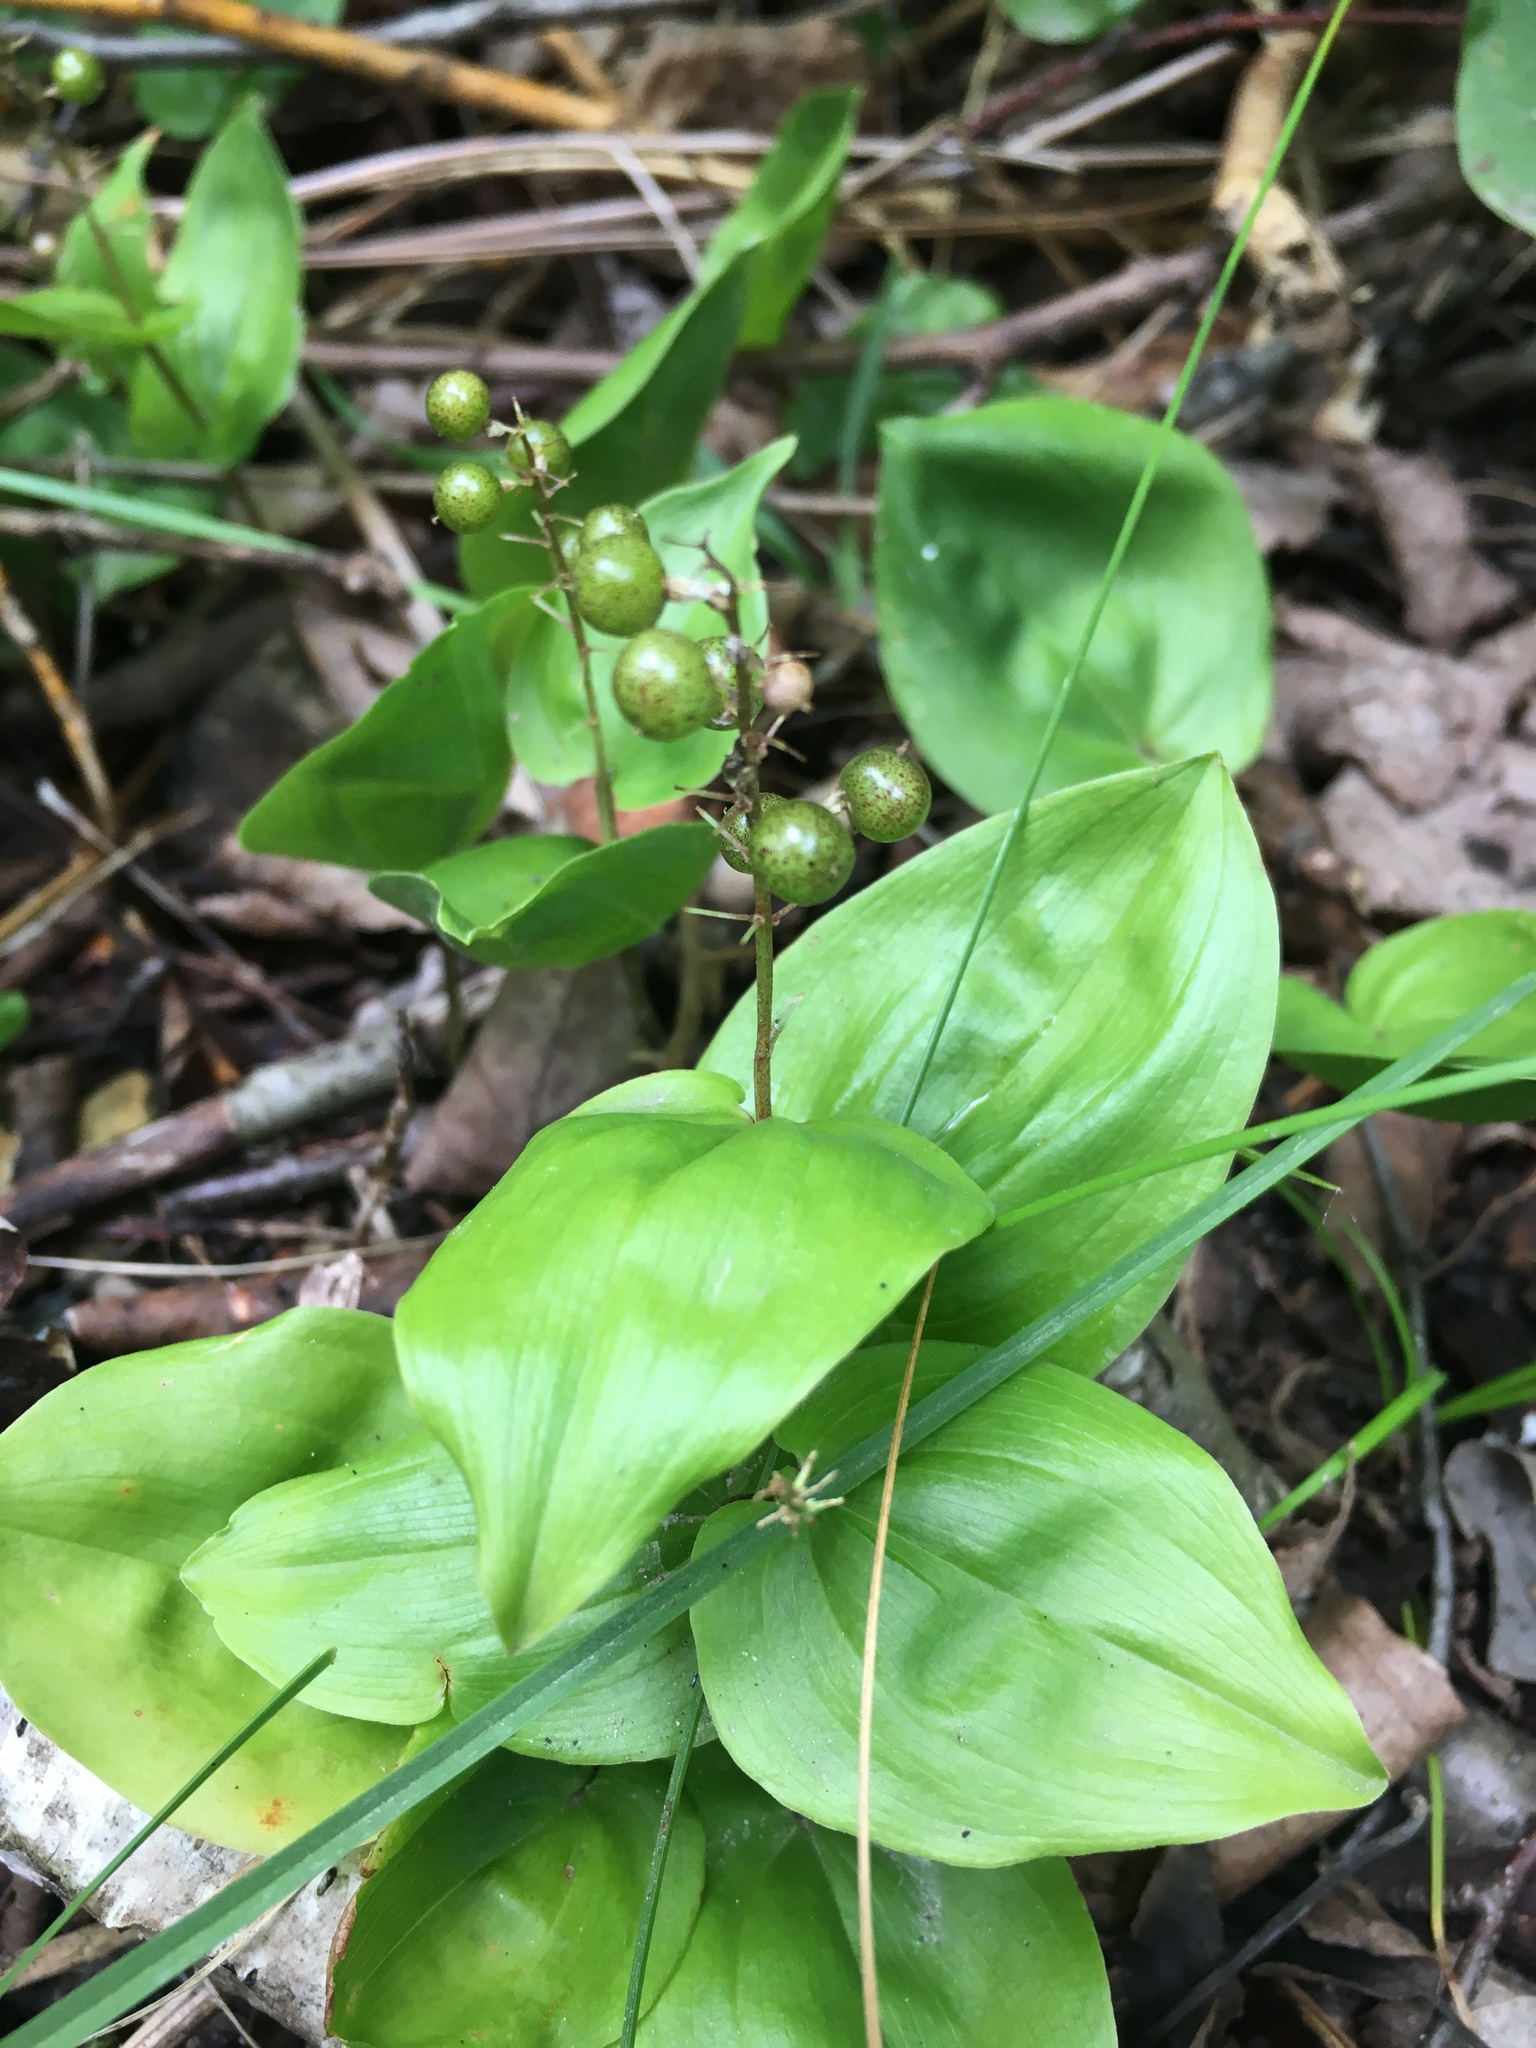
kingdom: Plantae
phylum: Tracheophyta
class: Liliopsida
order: Asparagales
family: Asparagaceae
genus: Maianthemum
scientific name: Maianthemum canadense
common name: False lily-of-the-valley
